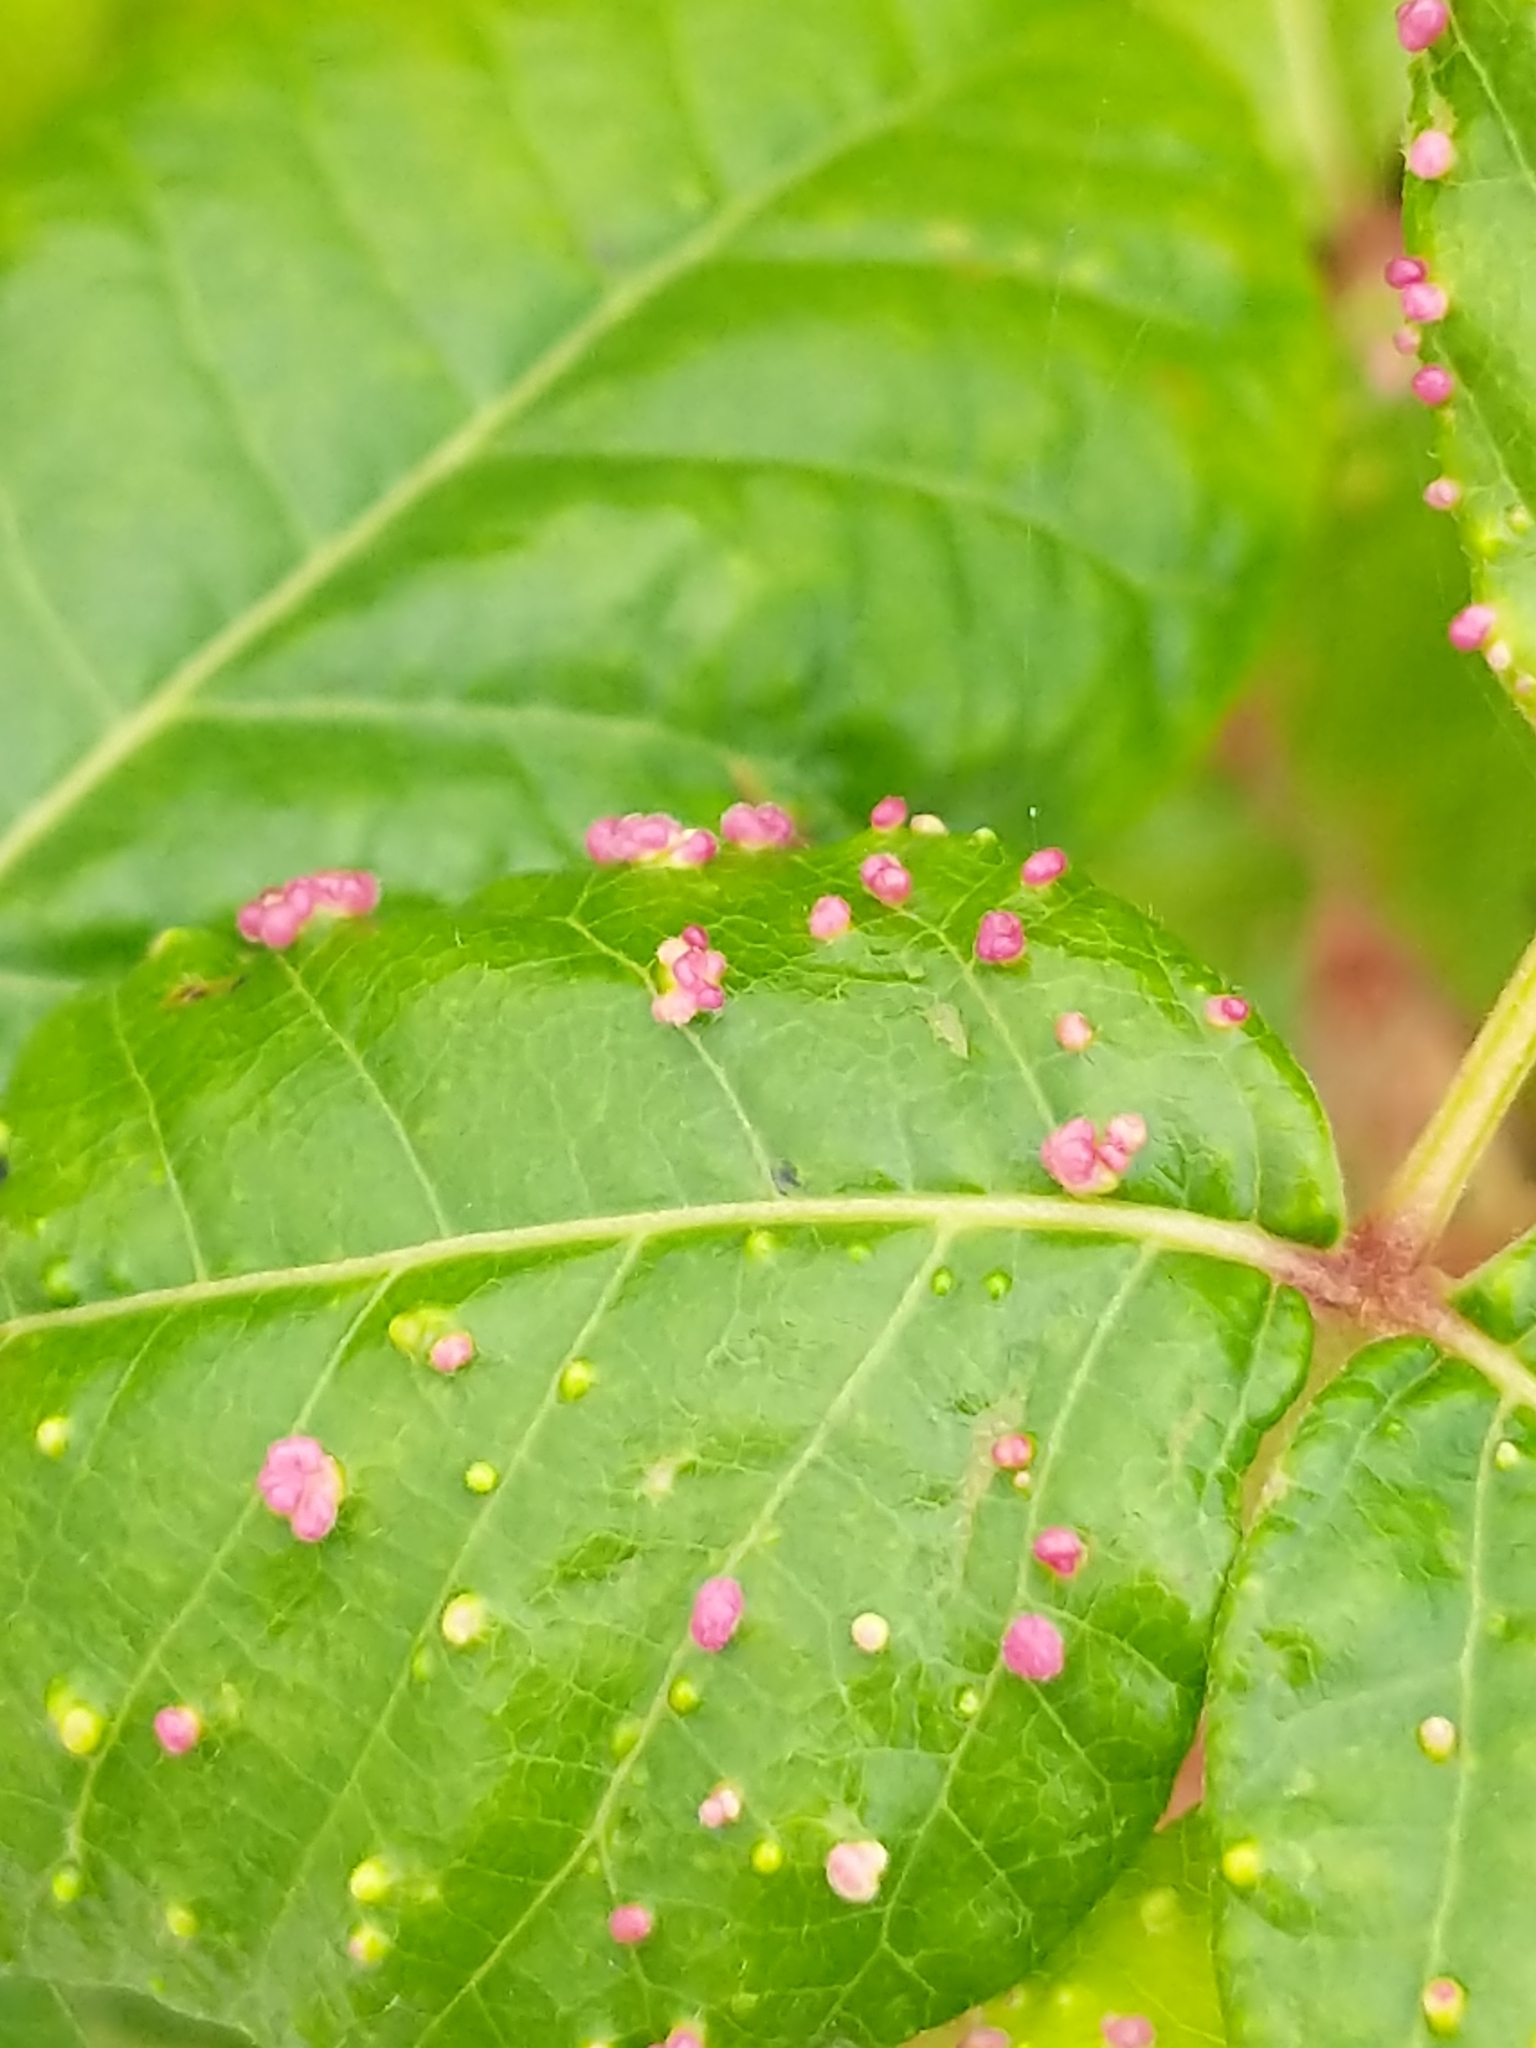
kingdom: Animalia
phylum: Arthropoda
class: Arachnida
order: Trombidiformes
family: Eriophyidae
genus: Aculops
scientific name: Aculops
